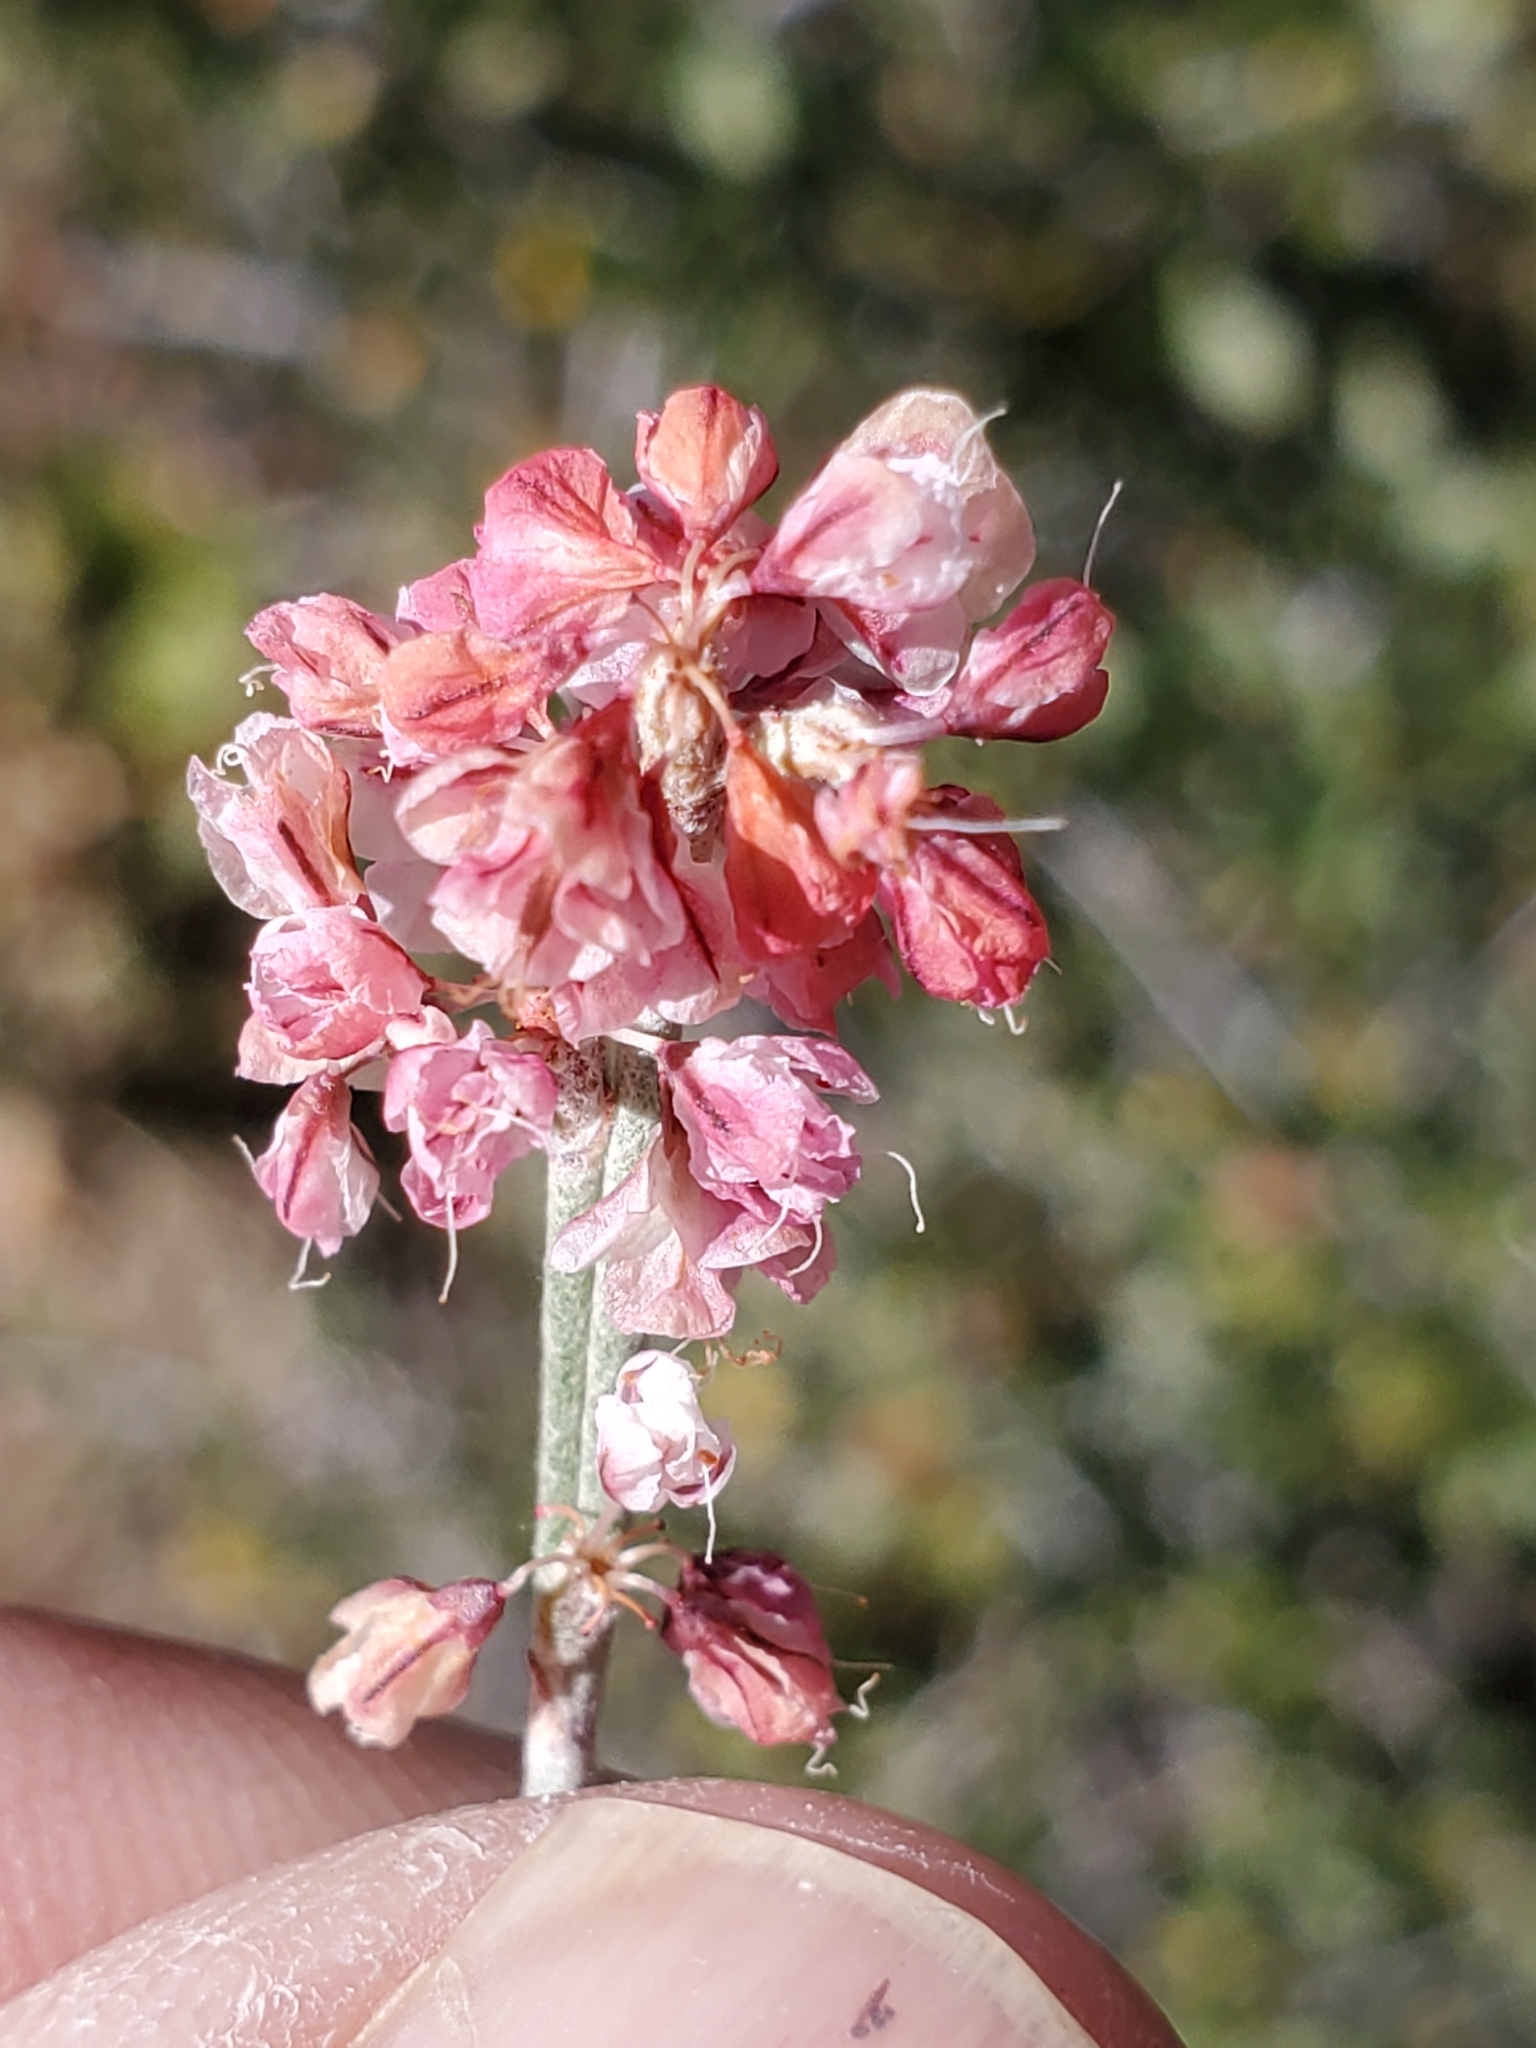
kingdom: Plantae
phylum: Tracheophyta
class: Magnoliopsida
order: Caryophyllales
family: Polygonaceae
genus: Eriogonum
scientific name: Eriogonum wrightii
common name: Bastard-sage
